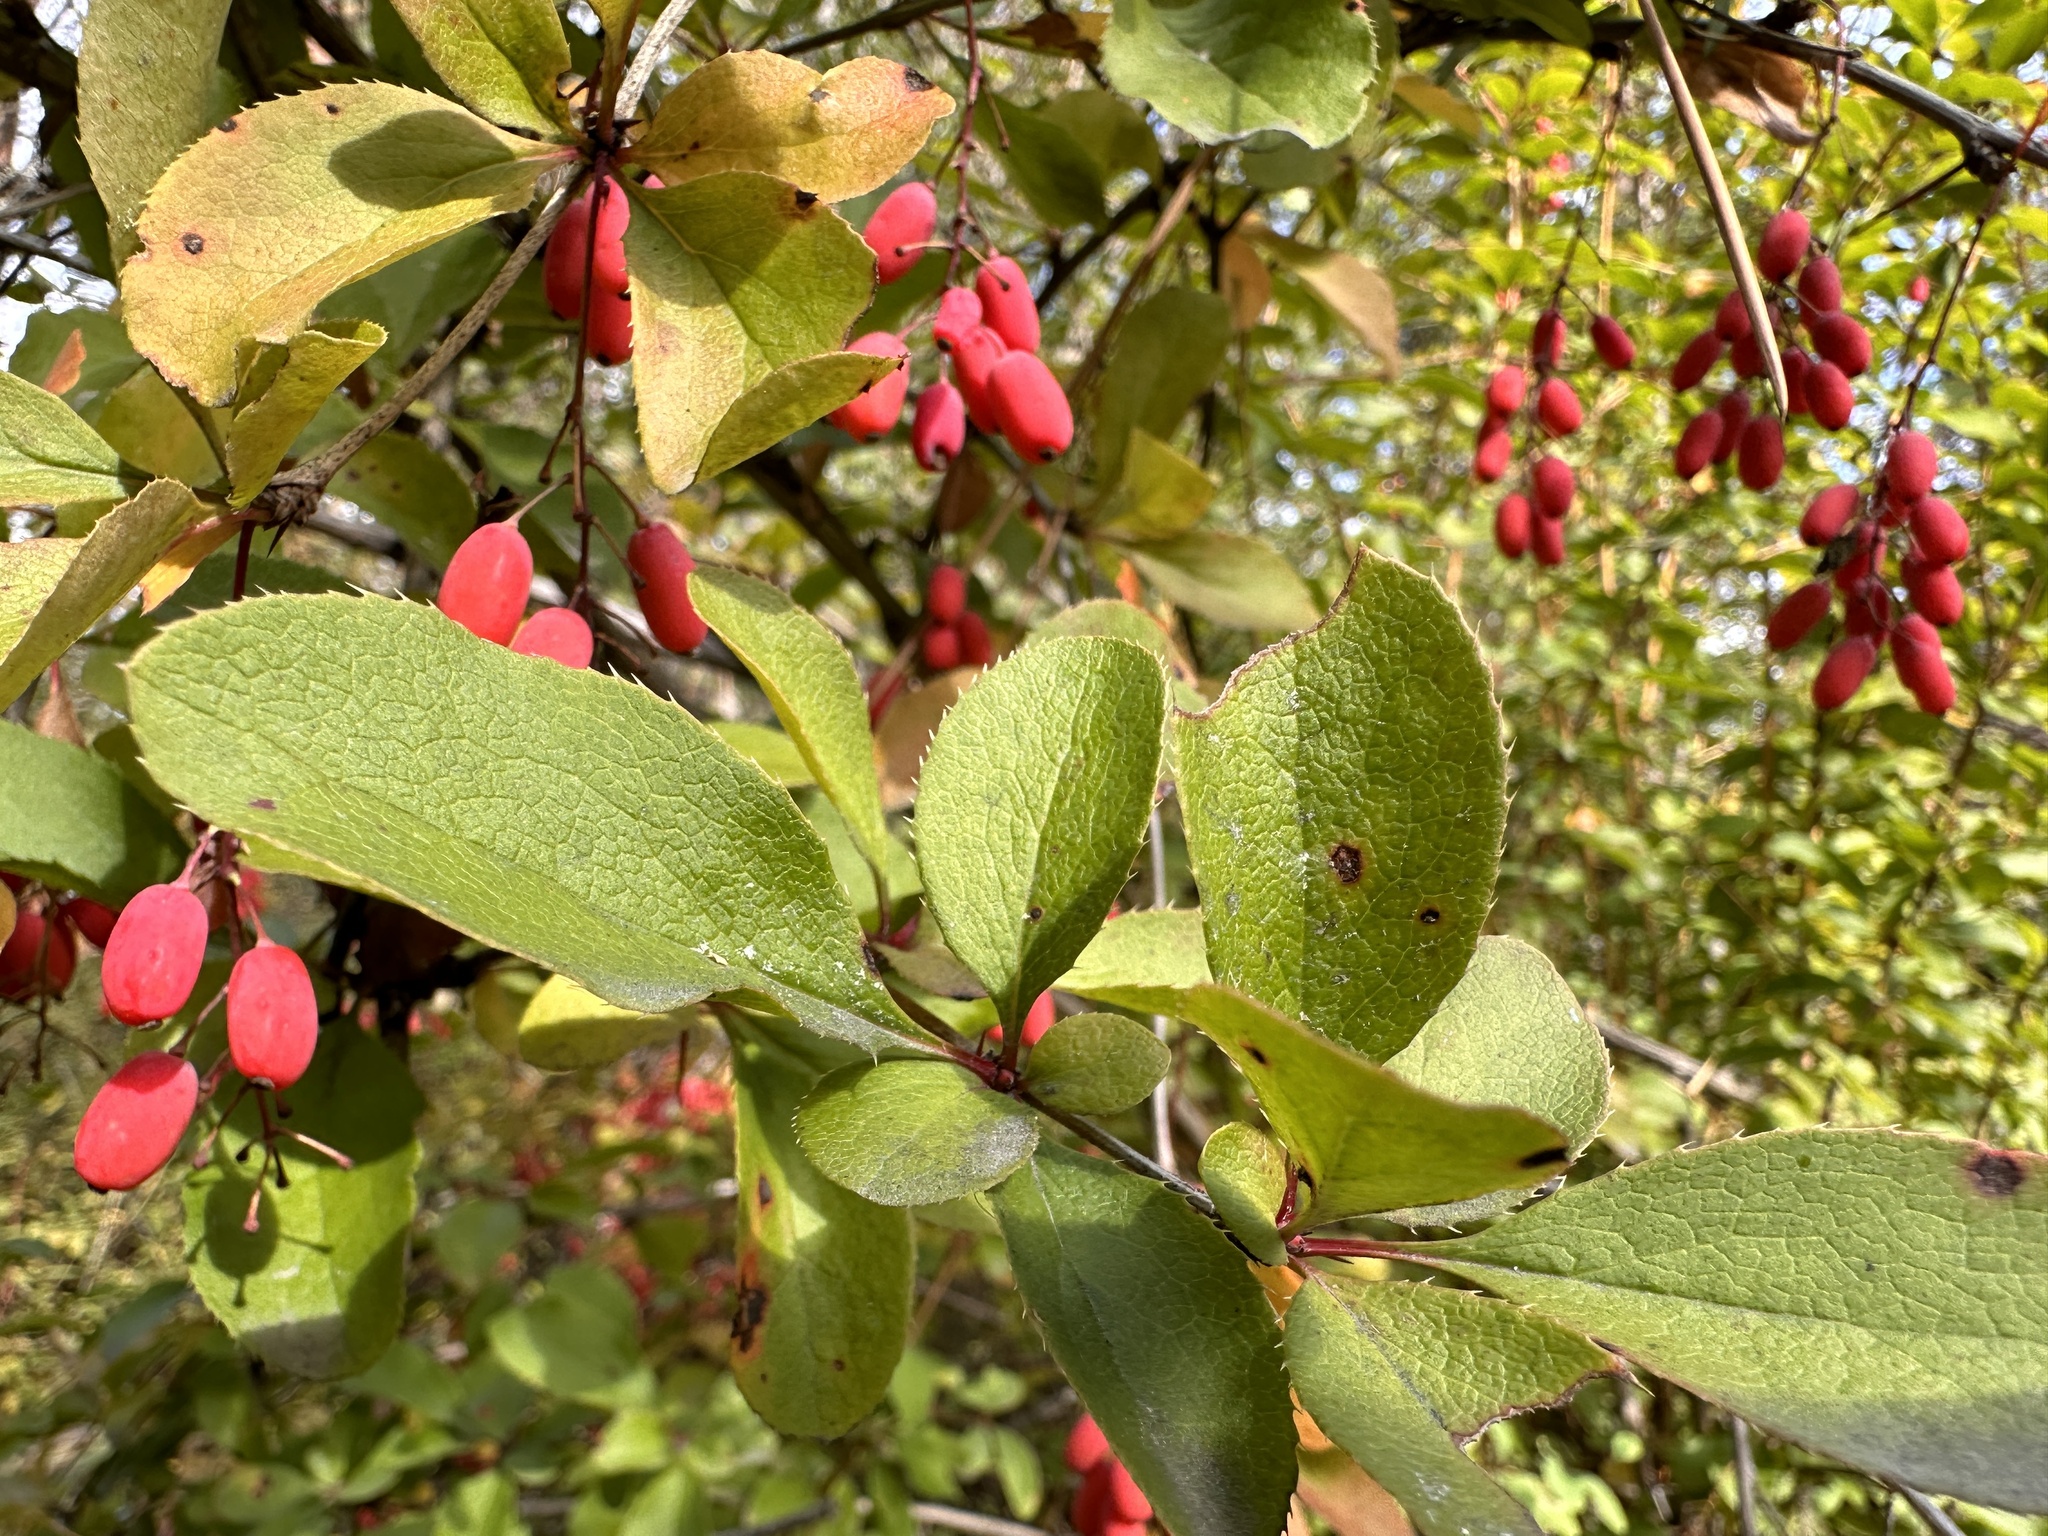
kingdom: Plantae
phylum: Tracheophyta
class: Magnoliopsida
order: Ranunculales
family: Berberidaceae
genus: Berberis
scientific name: Berberis vulgaris
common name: Barberry
